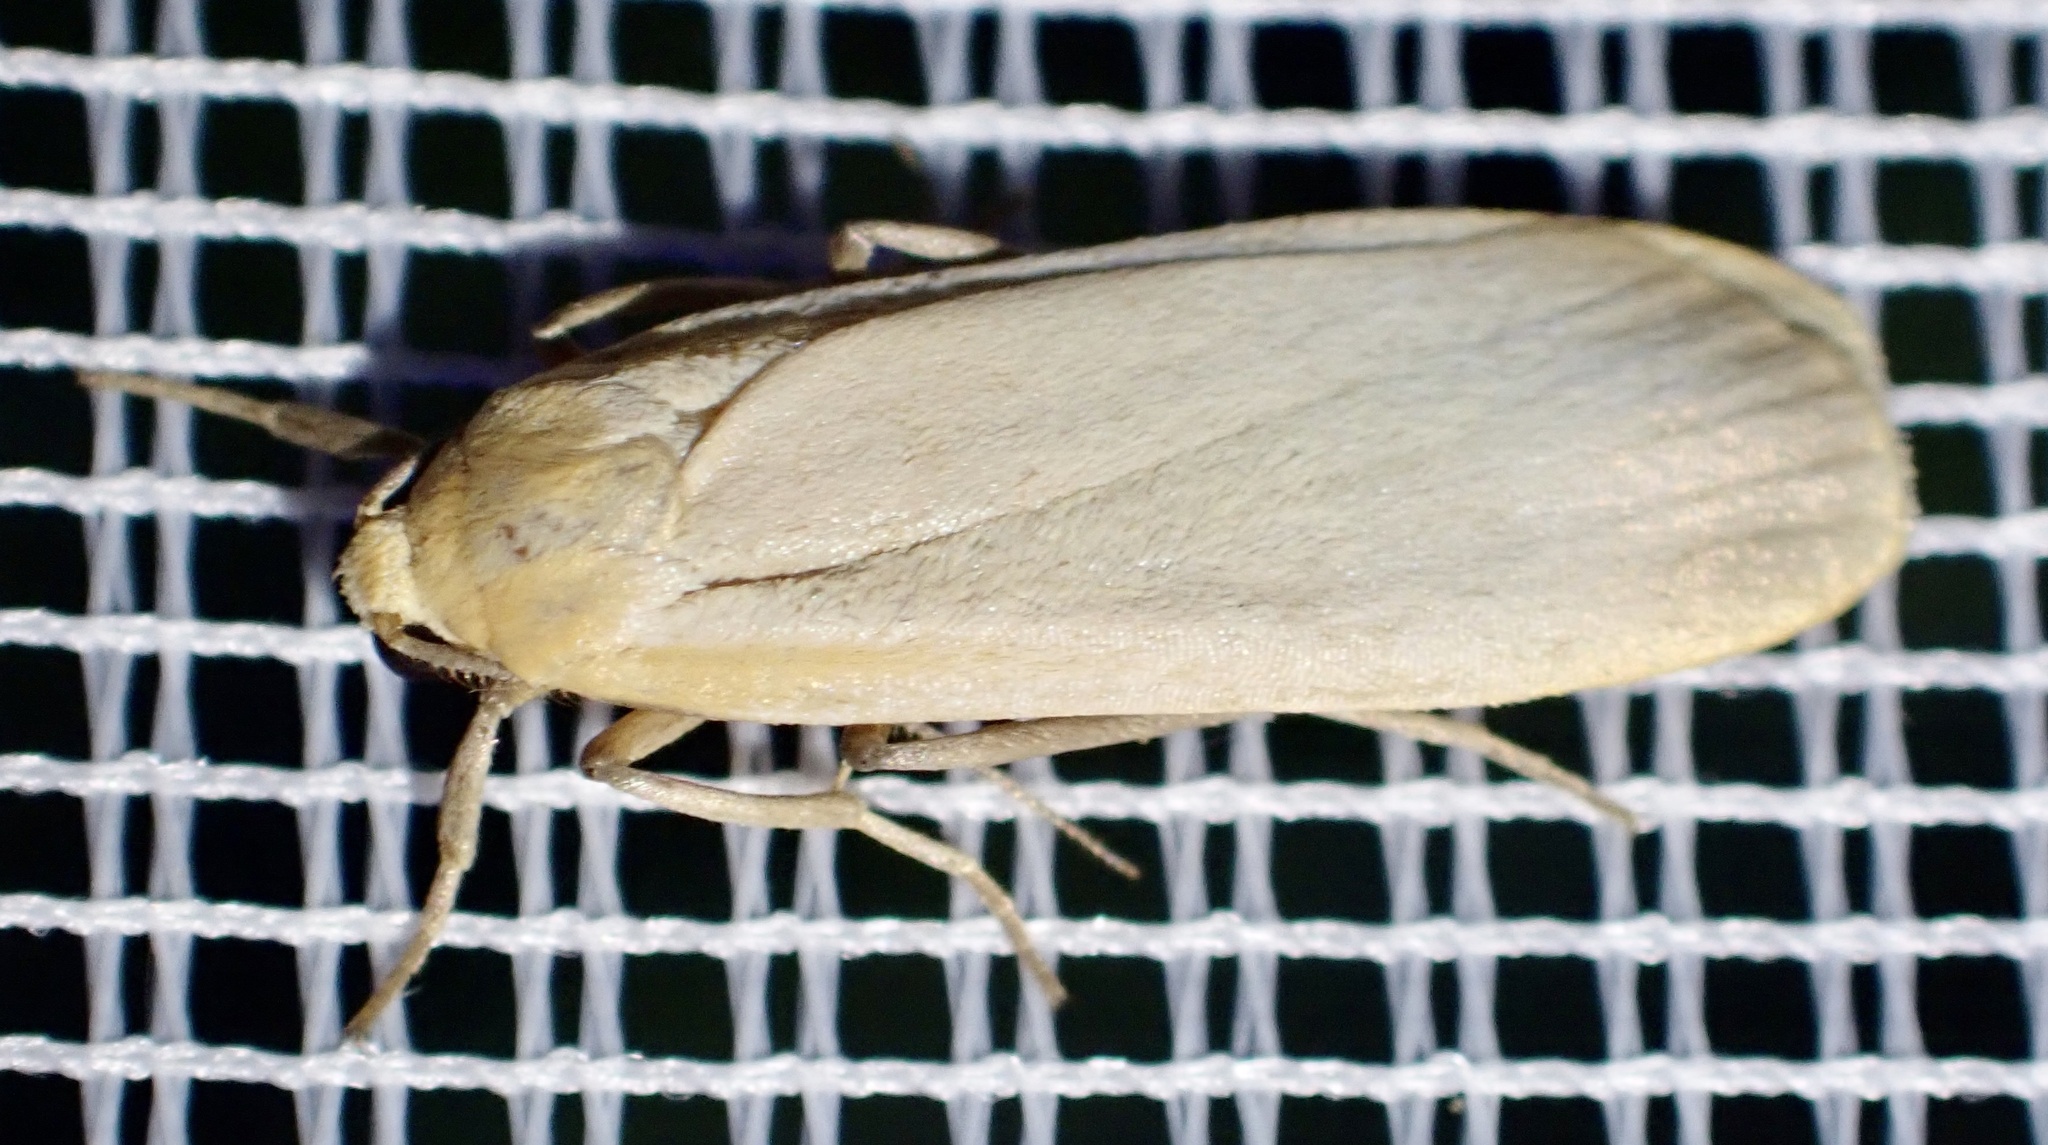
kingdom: Animalia
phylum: Arthropoda
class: Insecta
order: Lepidoptera
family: Erebidae
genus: Katha
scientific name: Katha depressa
